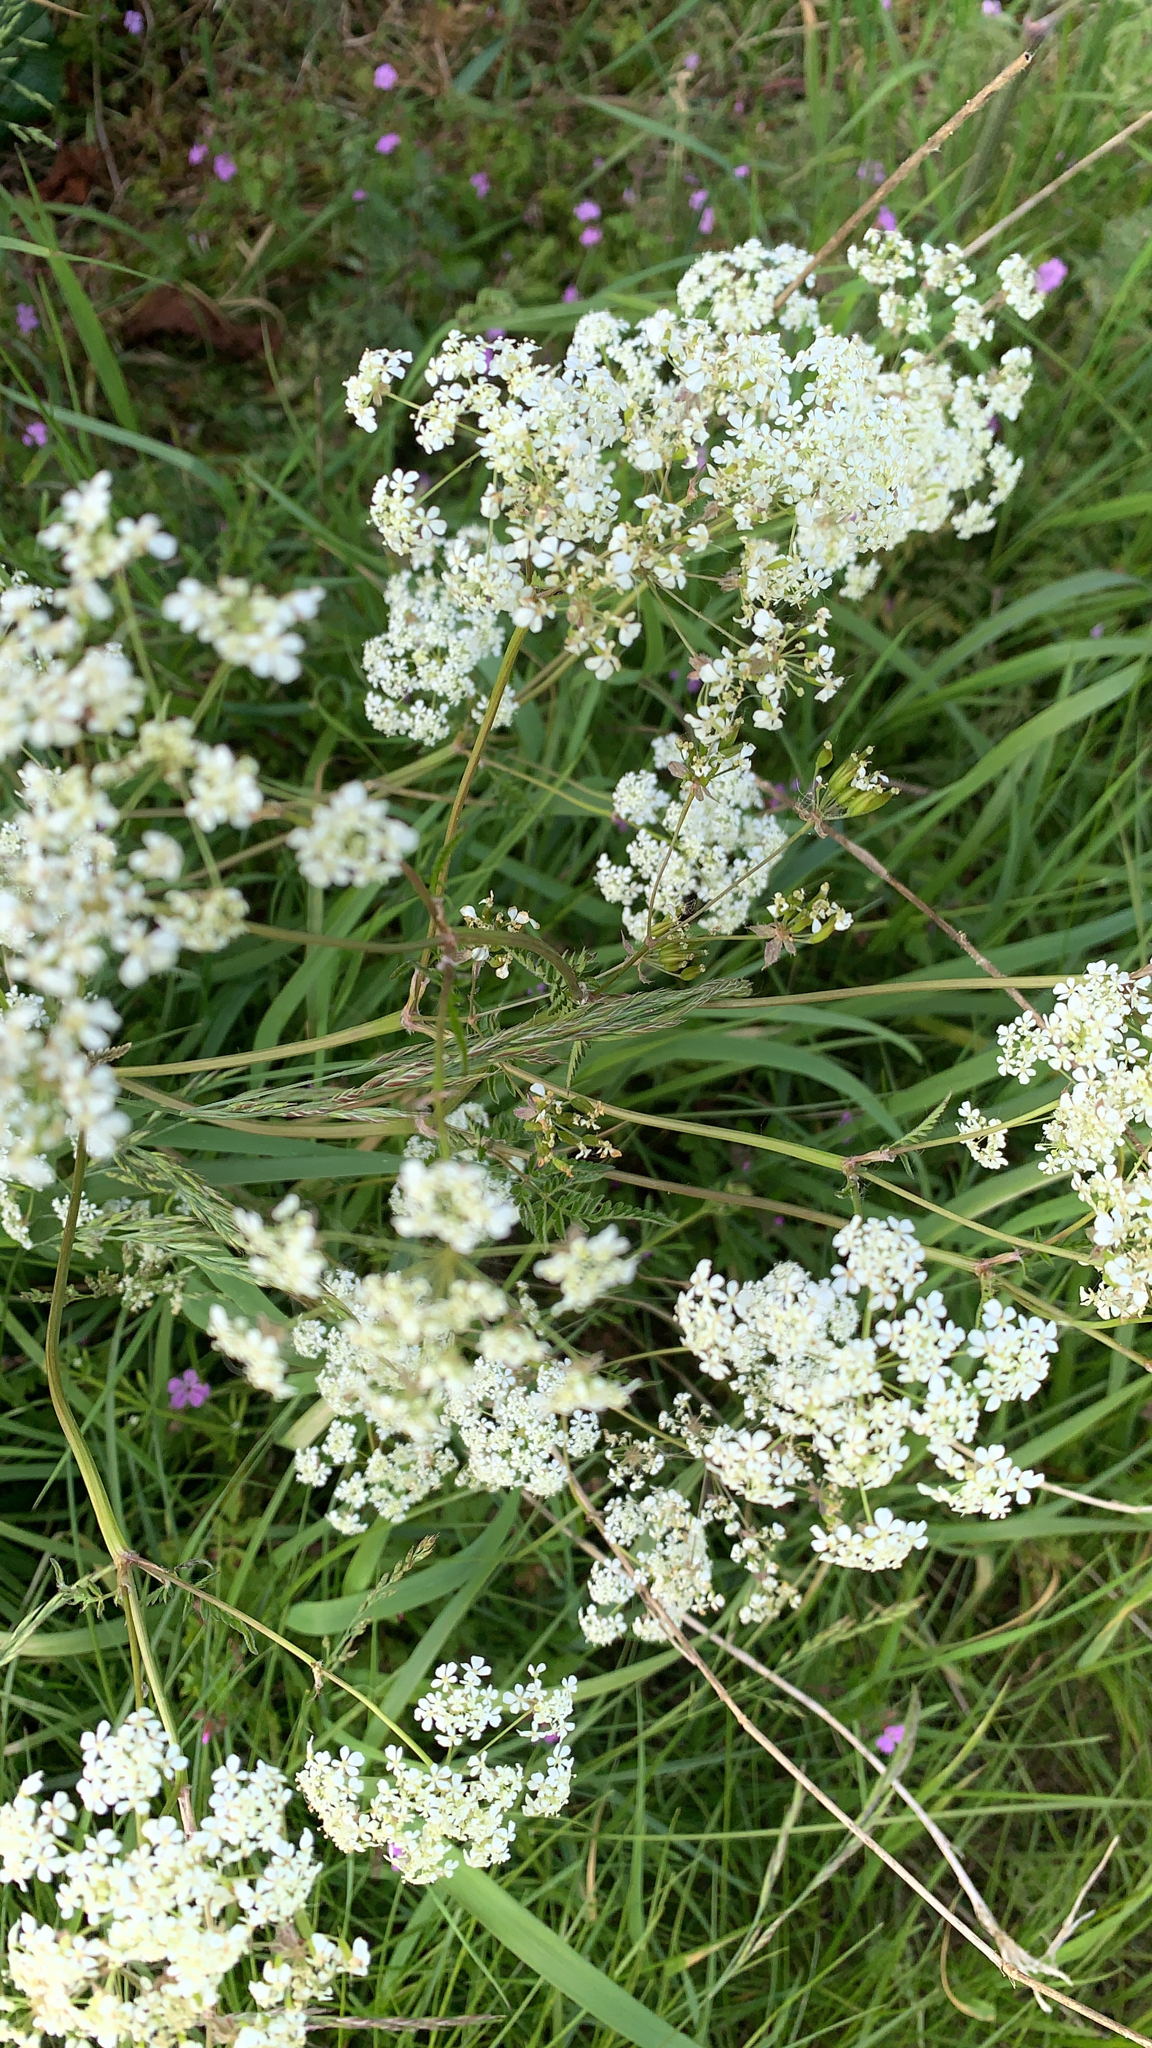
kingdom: Plantae
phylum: Tracheophyta
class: Magnoliopsida
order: Apiales
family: Apiaceae
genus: Anthriscus
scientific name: Anthriscus sylvestris
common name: Cow parsley
